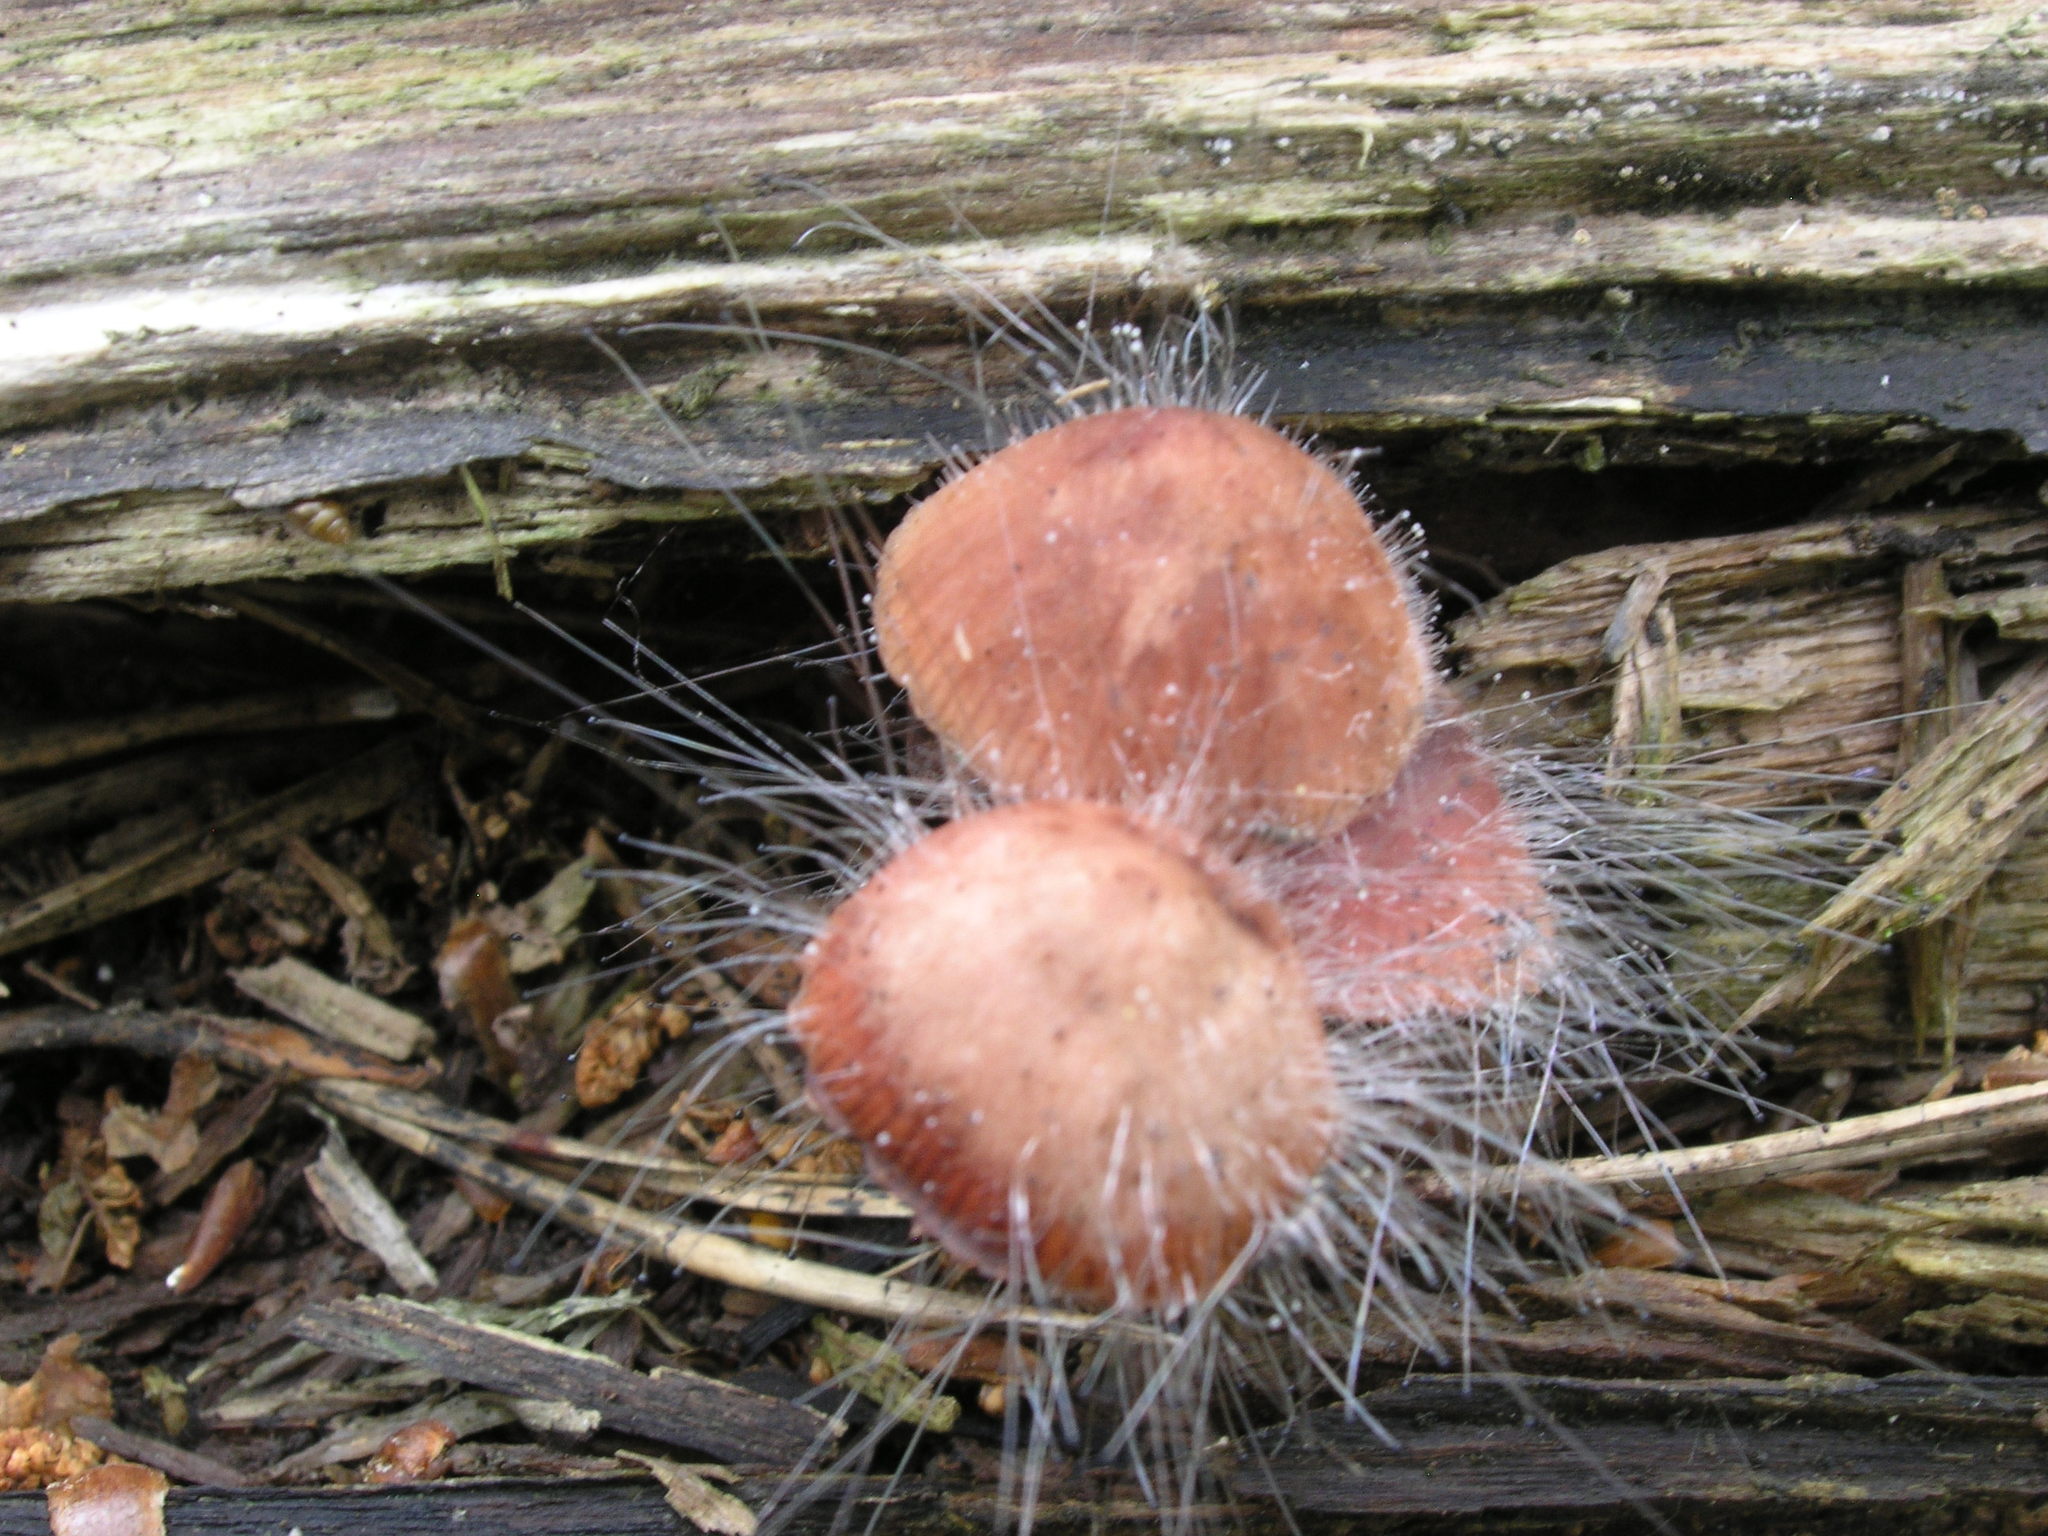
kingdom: Fungi
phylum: Mucoromycota
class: Mucoromycetes
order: Mucorales
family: Phycomycetaceae
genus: Spinellus
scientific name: Spinellus fusiger
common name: Bonnet mould
